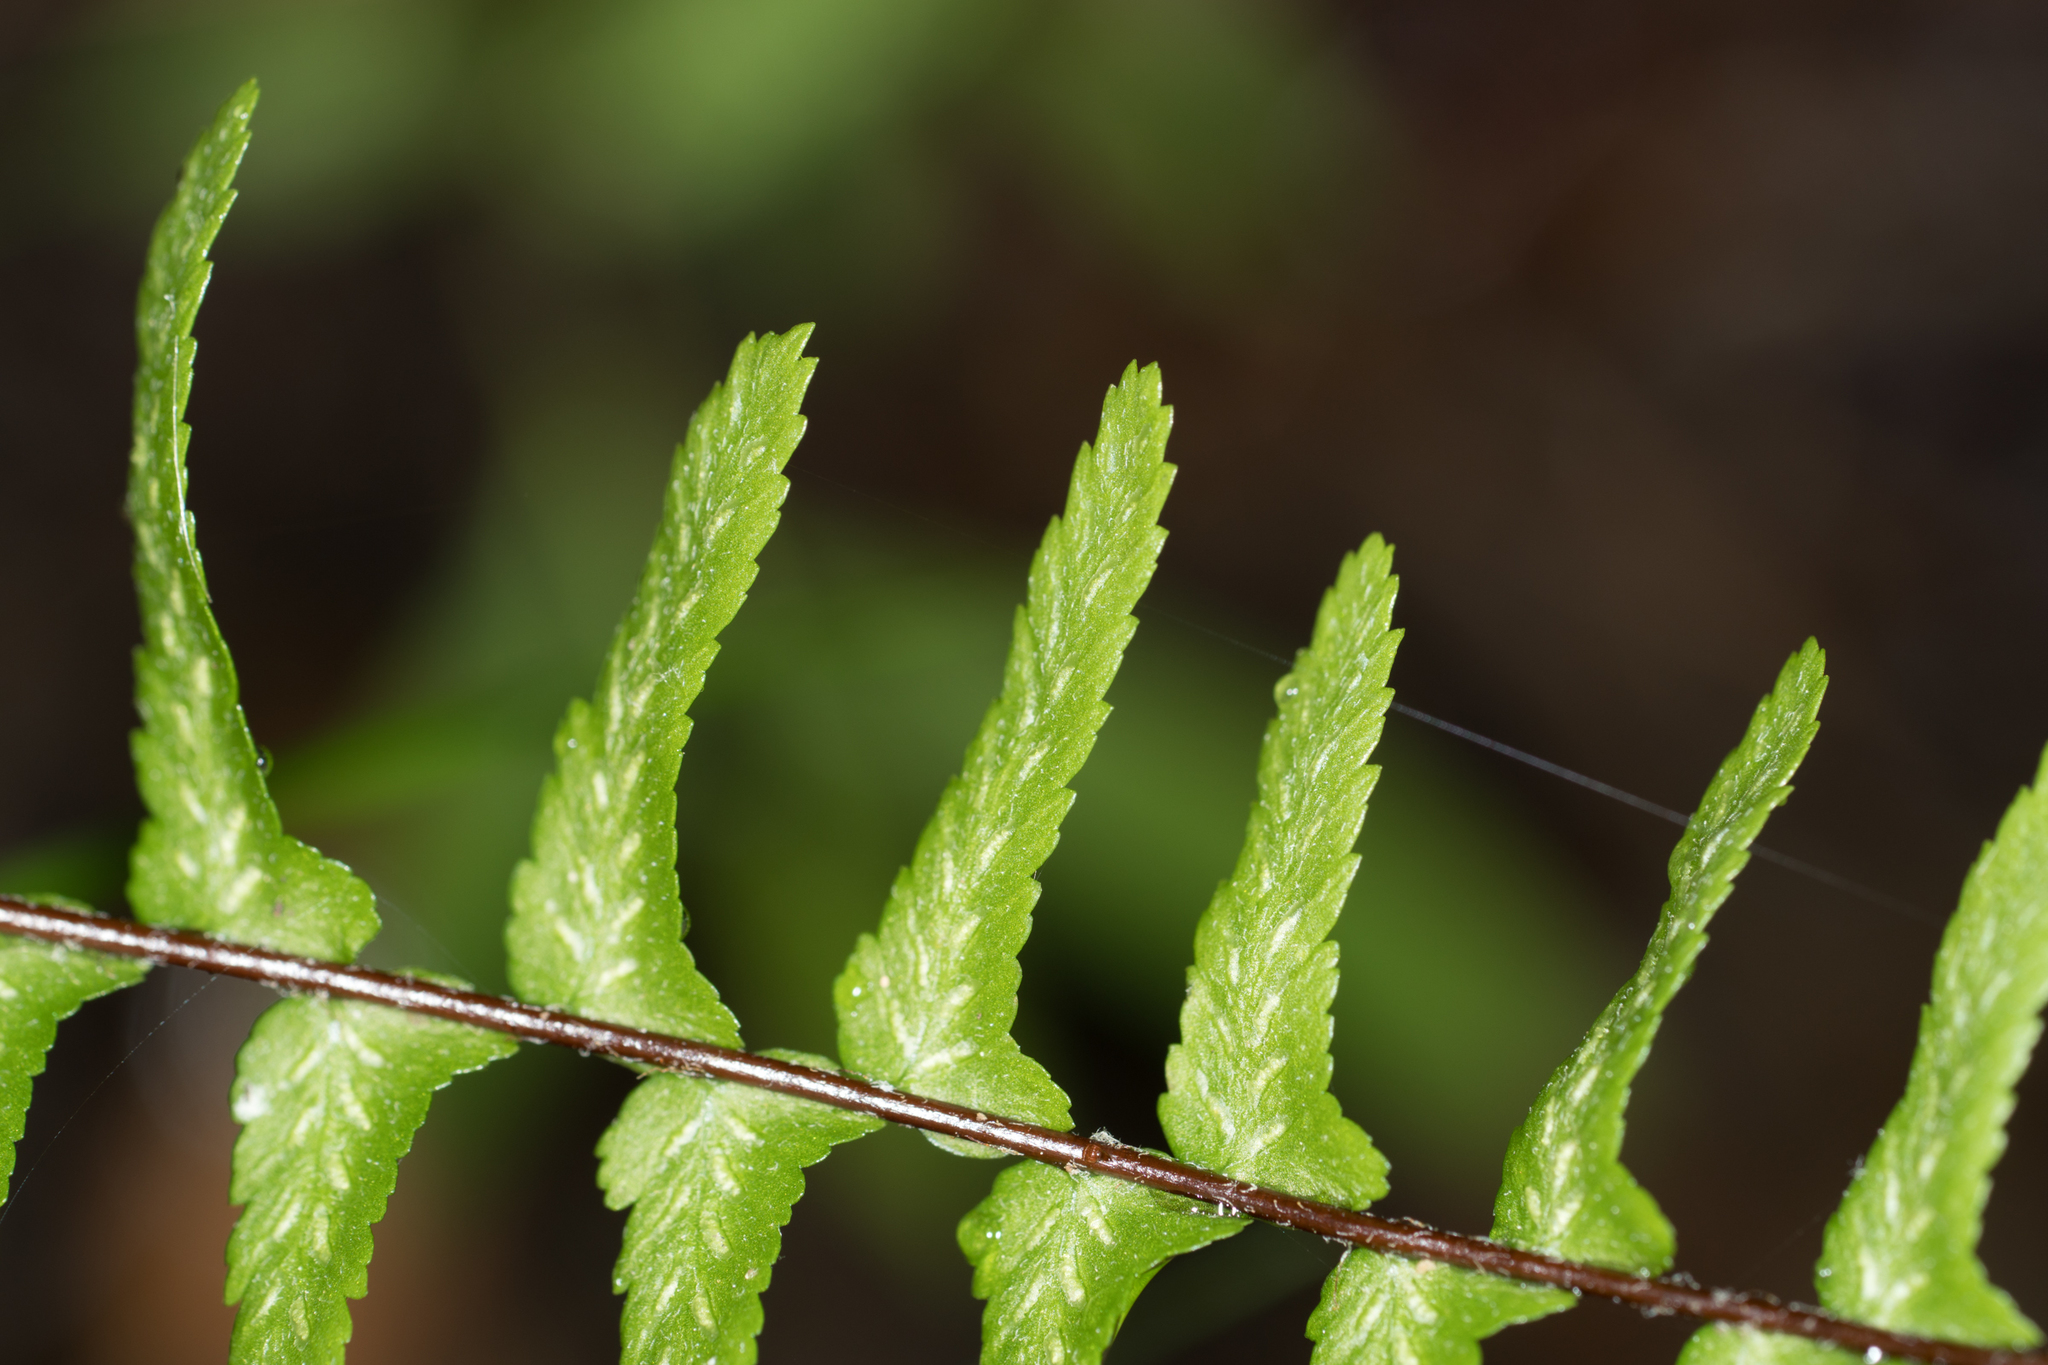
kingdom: Plantae
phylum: Tracheophyta
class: Polypodiopsida
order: Polypodiales
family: Aspleniaceae
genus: Asplenium
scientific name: Asplenium platyneuron
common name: Ebony spleenwort
